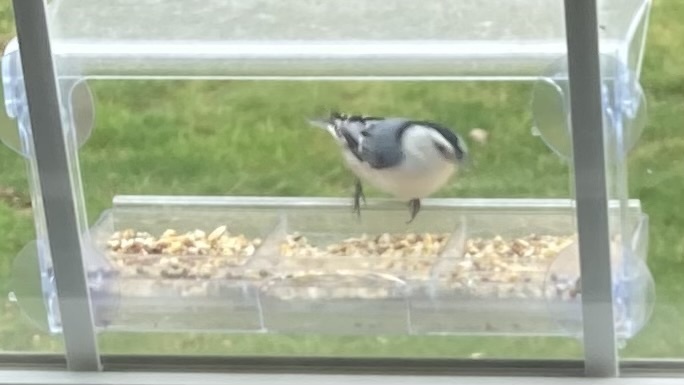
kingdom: Animalia
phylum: Chordata
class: Aves
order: Passeriformes
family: Sittidae
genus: Sitta
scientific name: Sitta carolinensis
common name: White-breasted nuthatch
